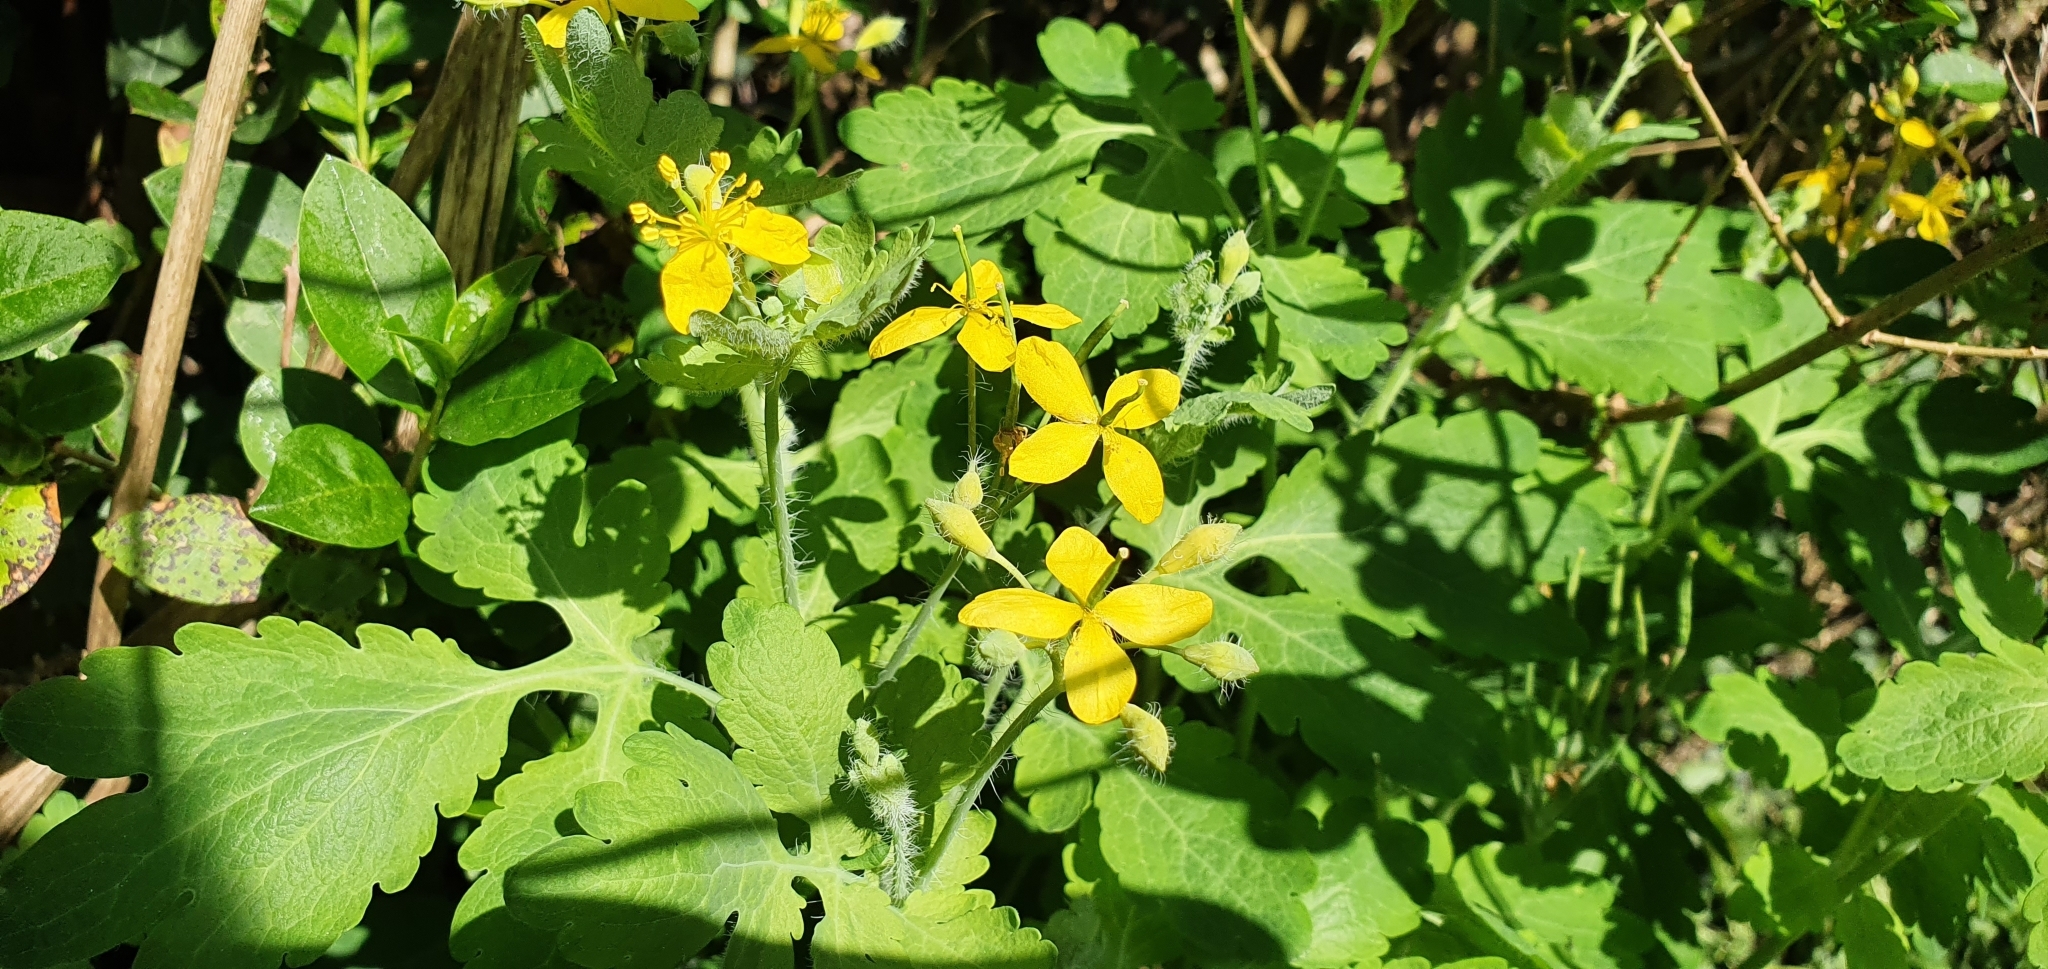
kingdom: Plantae
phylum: Tracheophyta
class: Magnoliopsida
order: Ranunculales
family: Papaveraceae
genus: Chelidonium
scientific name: Chelidonium majus
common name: Greater celandine
